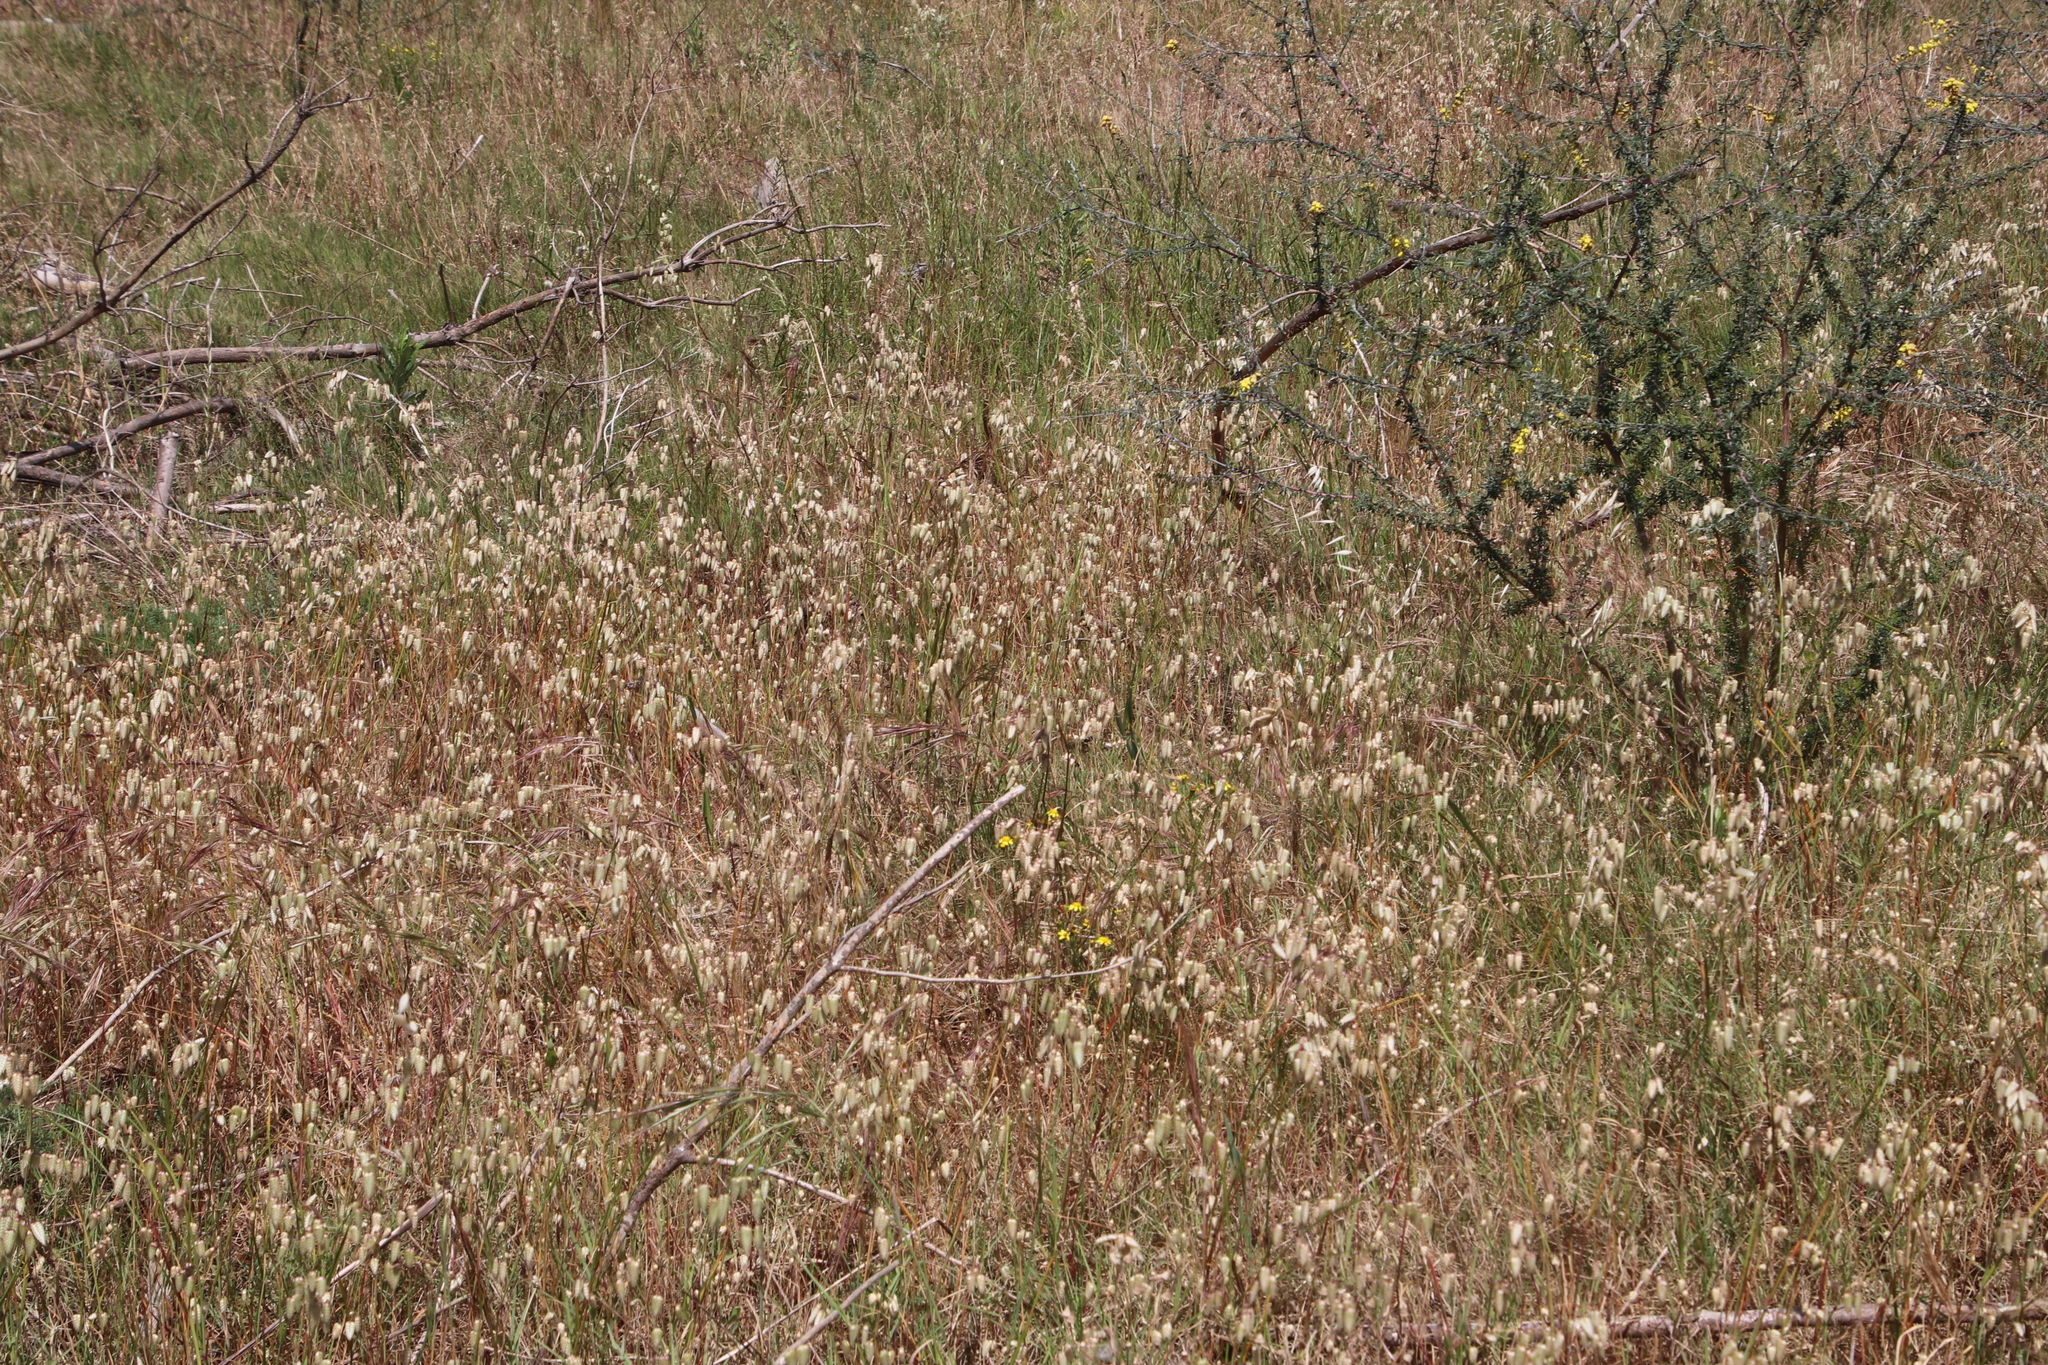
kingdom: Plantae
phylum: Tracheophyta
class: Liliopsida
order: Poales
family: Poaceae
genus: Briza
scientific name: Briza maxima
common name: Big quakinggrass
